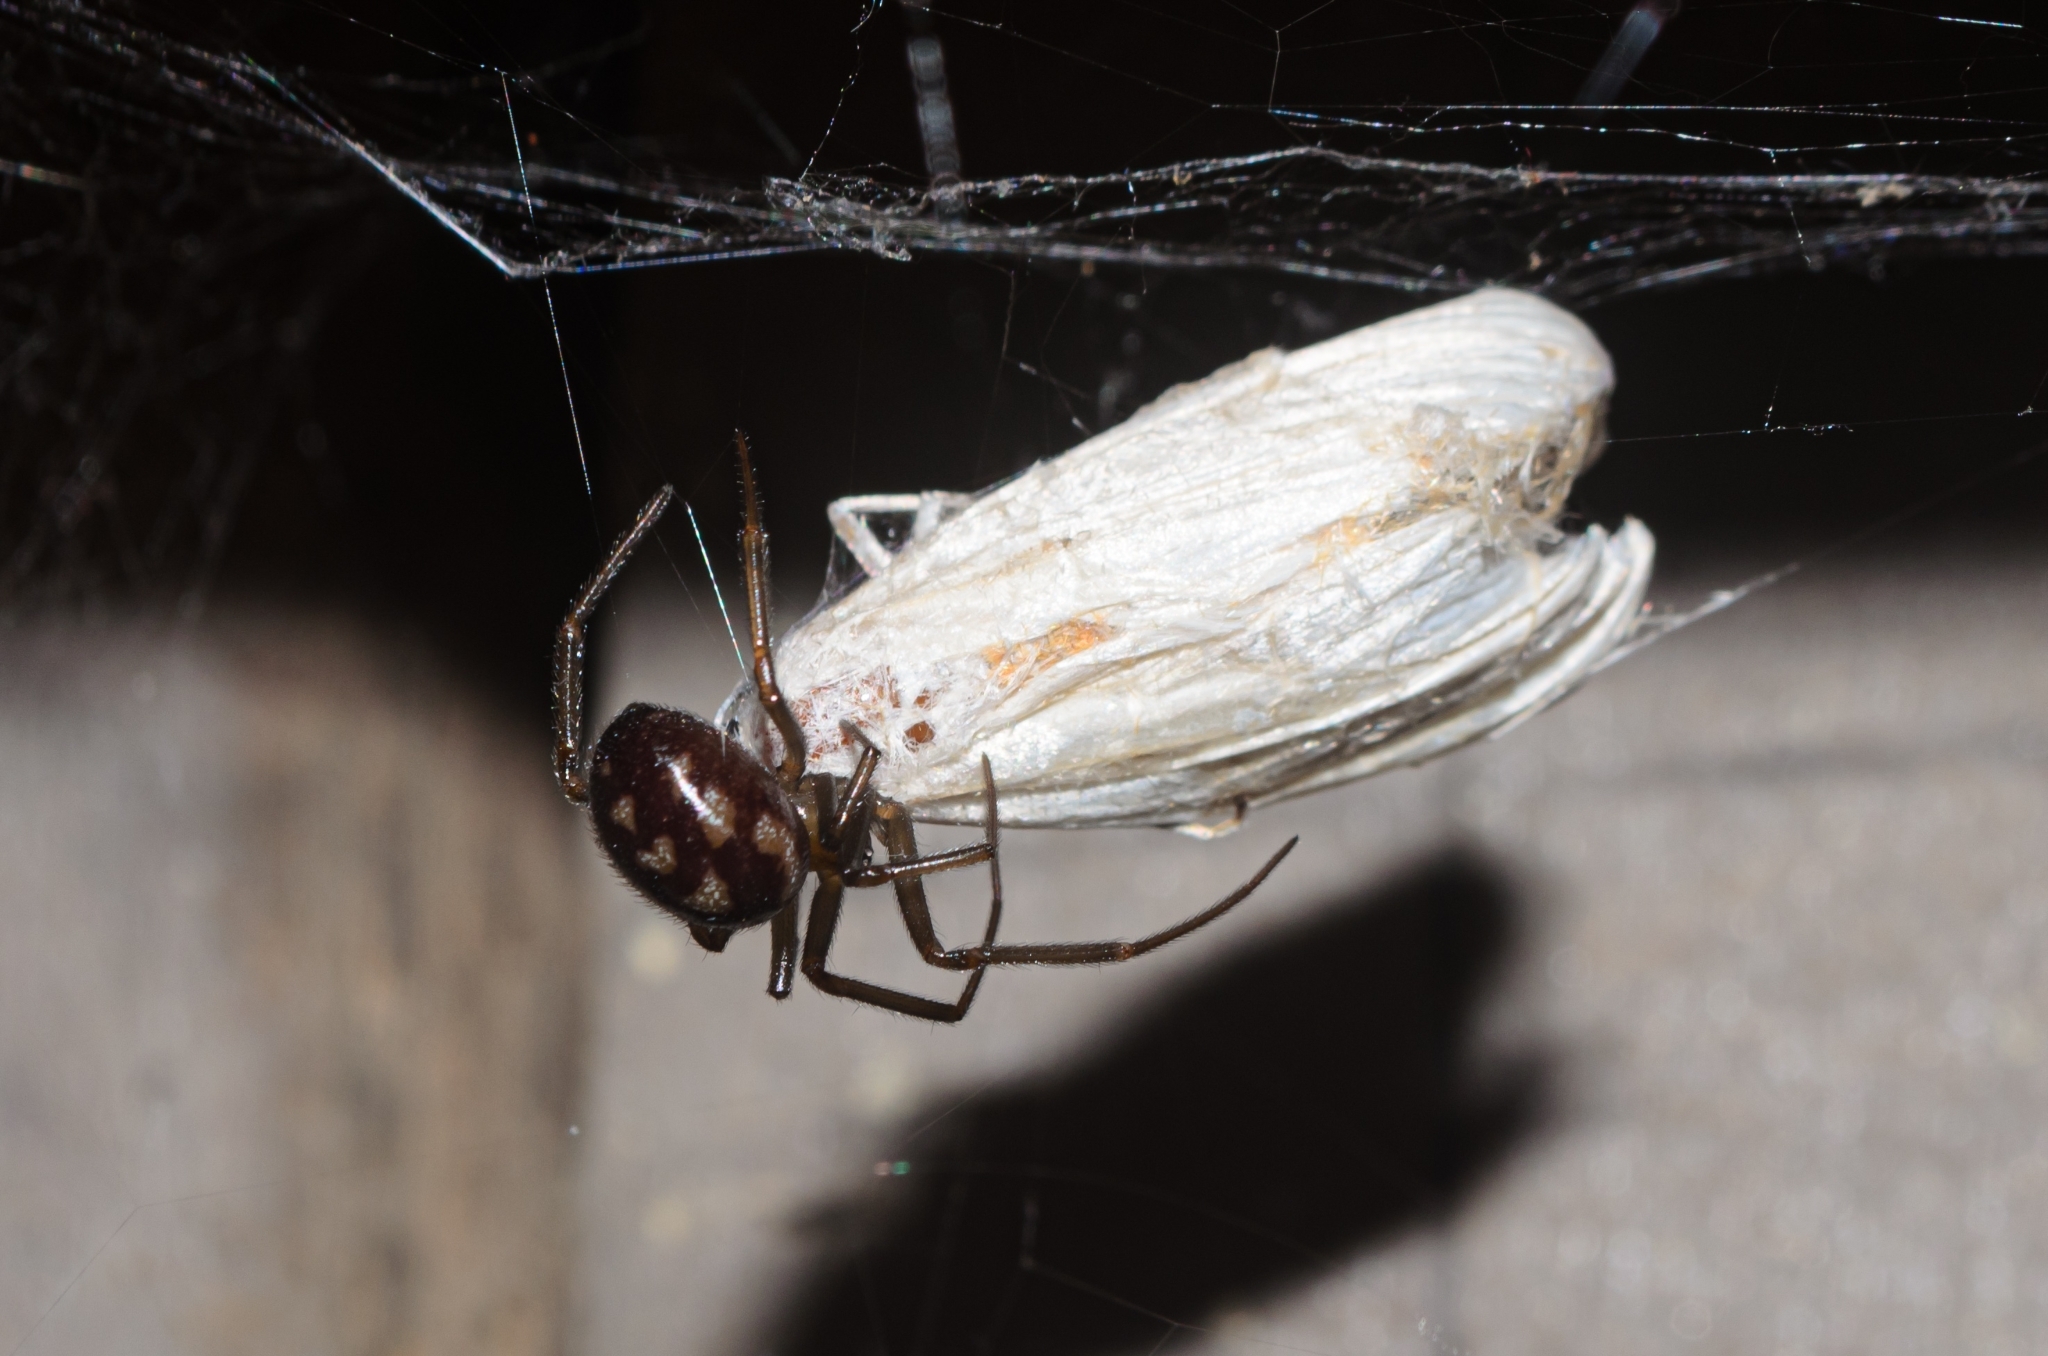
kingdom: Animalia
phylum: Arthropoda
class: Arachnida
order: Araneae
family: Theridiidae
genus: Steatoda
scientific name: Steatoda grossa
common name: False black widow
